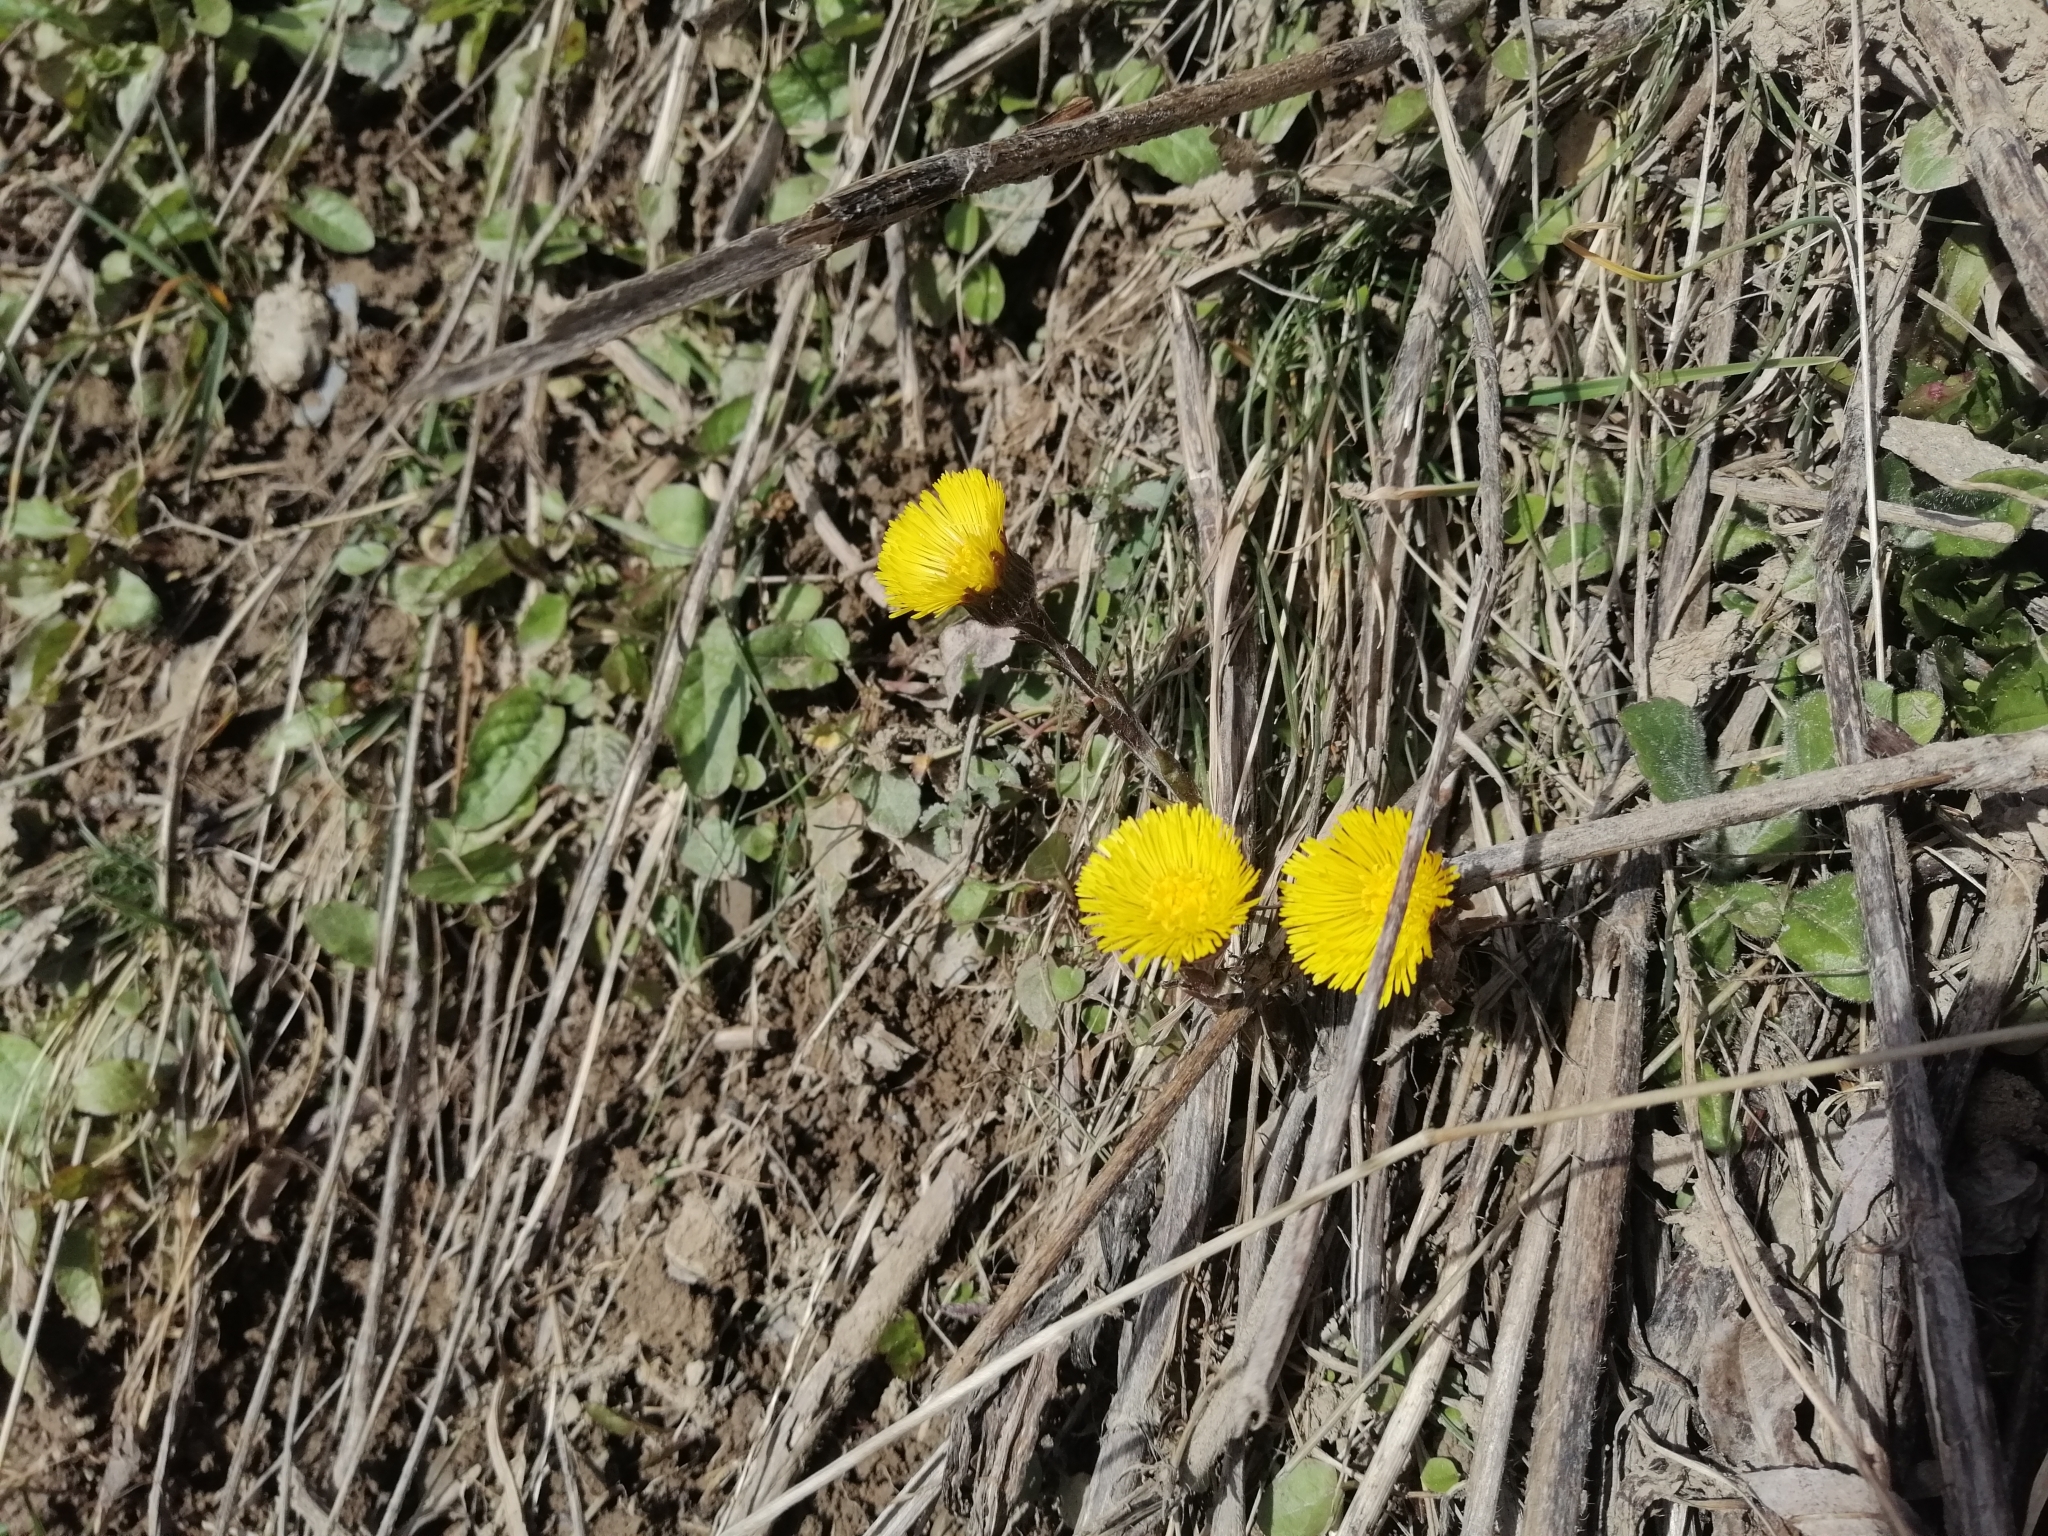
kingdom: Plantae
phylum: Tracheophyta
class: Magnoliopsida
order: Asterales
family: Asteraceae
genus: Tussilago
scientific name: Tussilago farfara
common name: Coltsfoot
